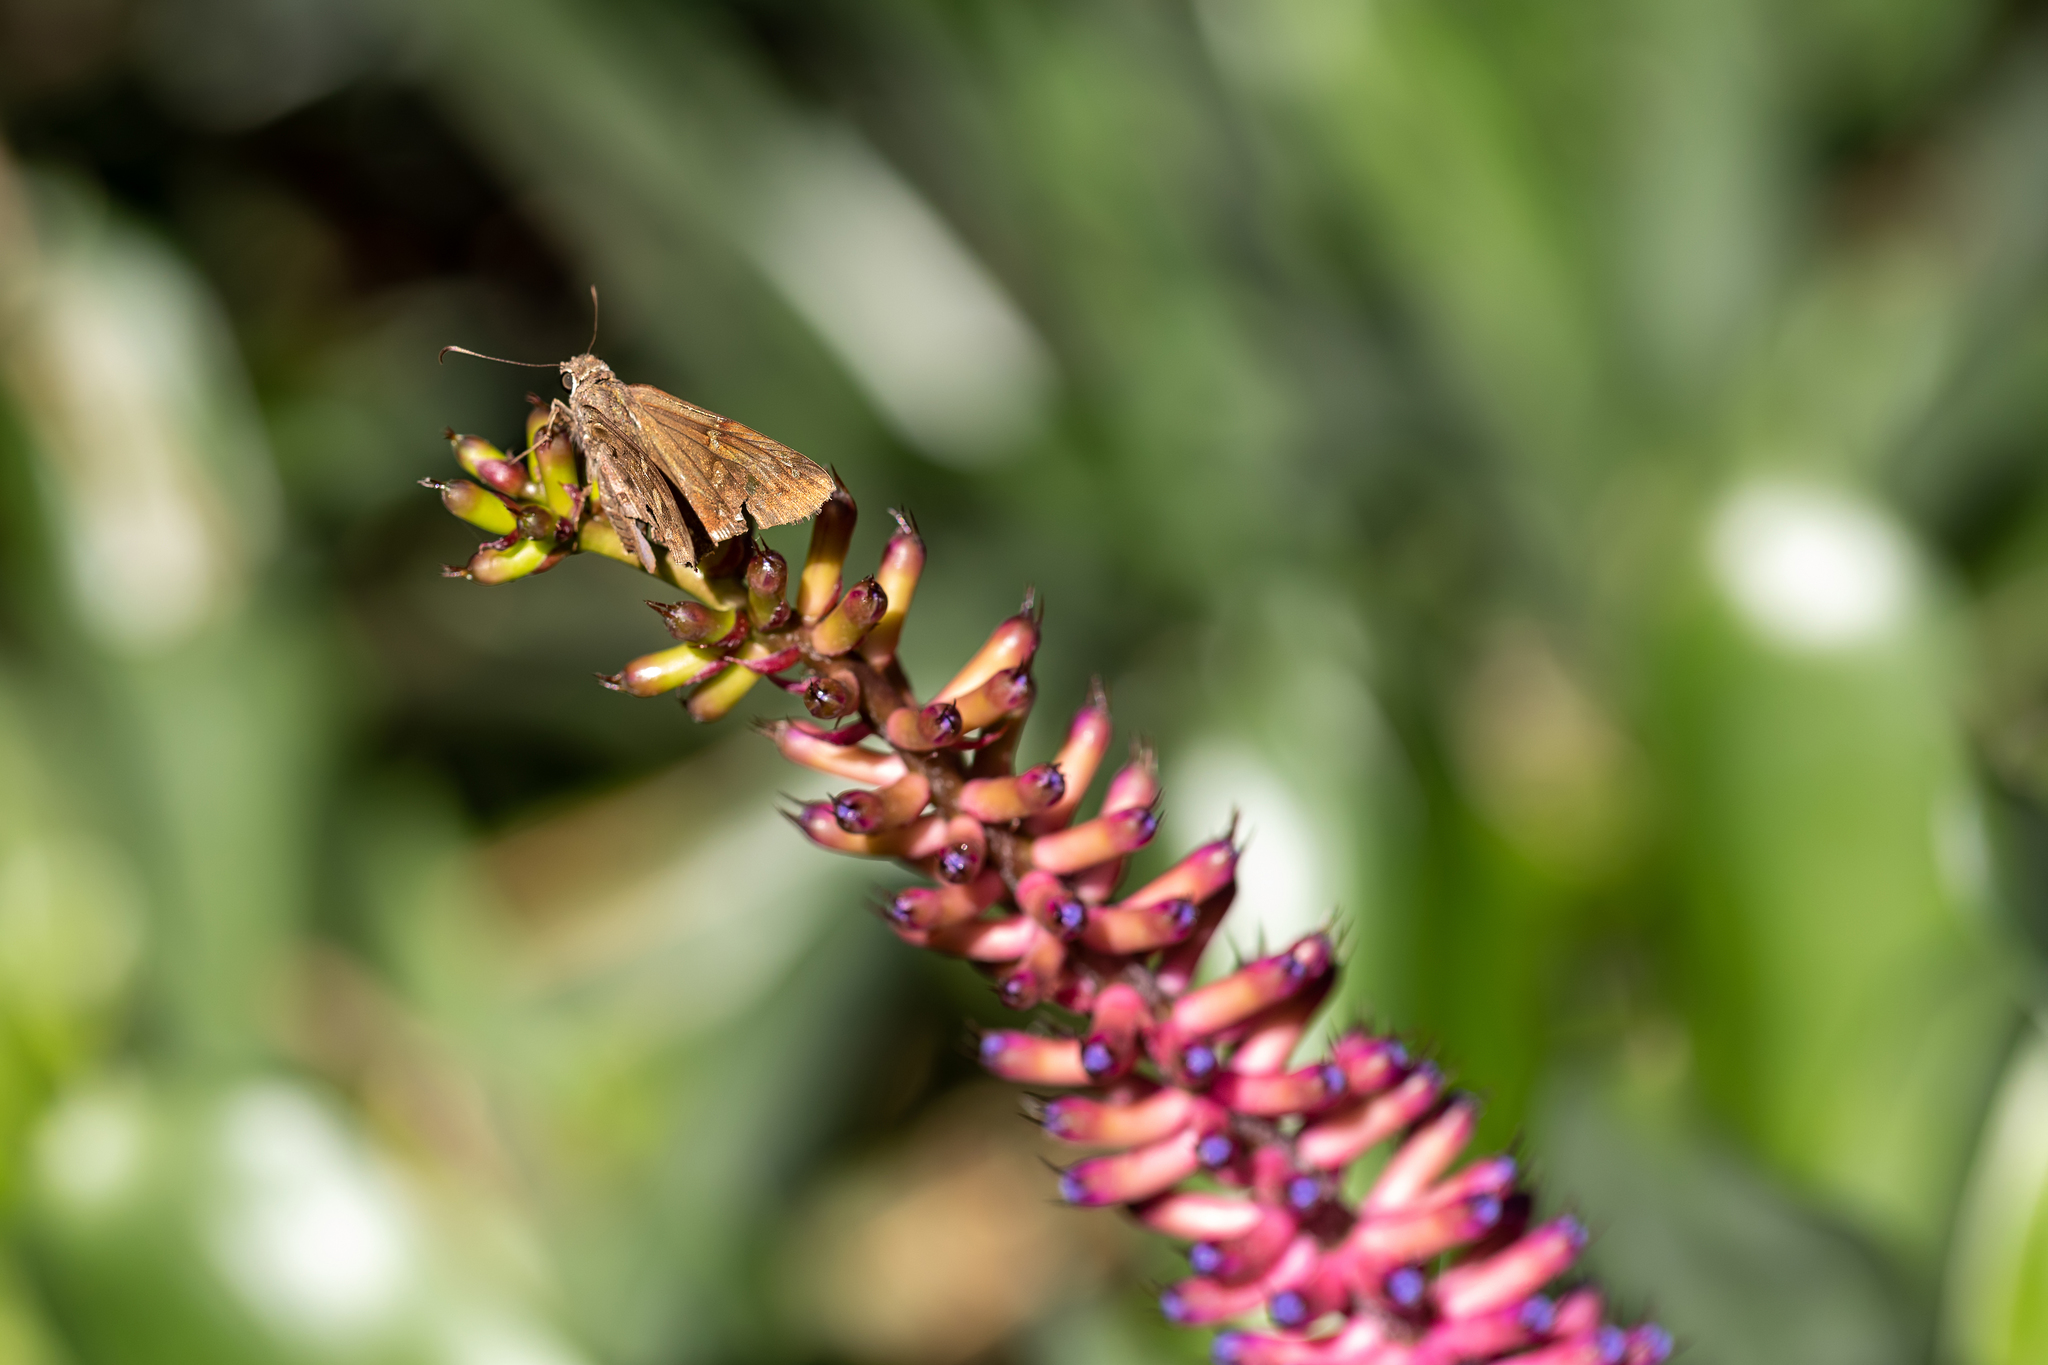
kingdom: Animalia
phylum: Arthropoda
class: Insecta
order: Lepidoptera
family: Hesperiidae
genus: Thorybes
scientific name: Thorybes
